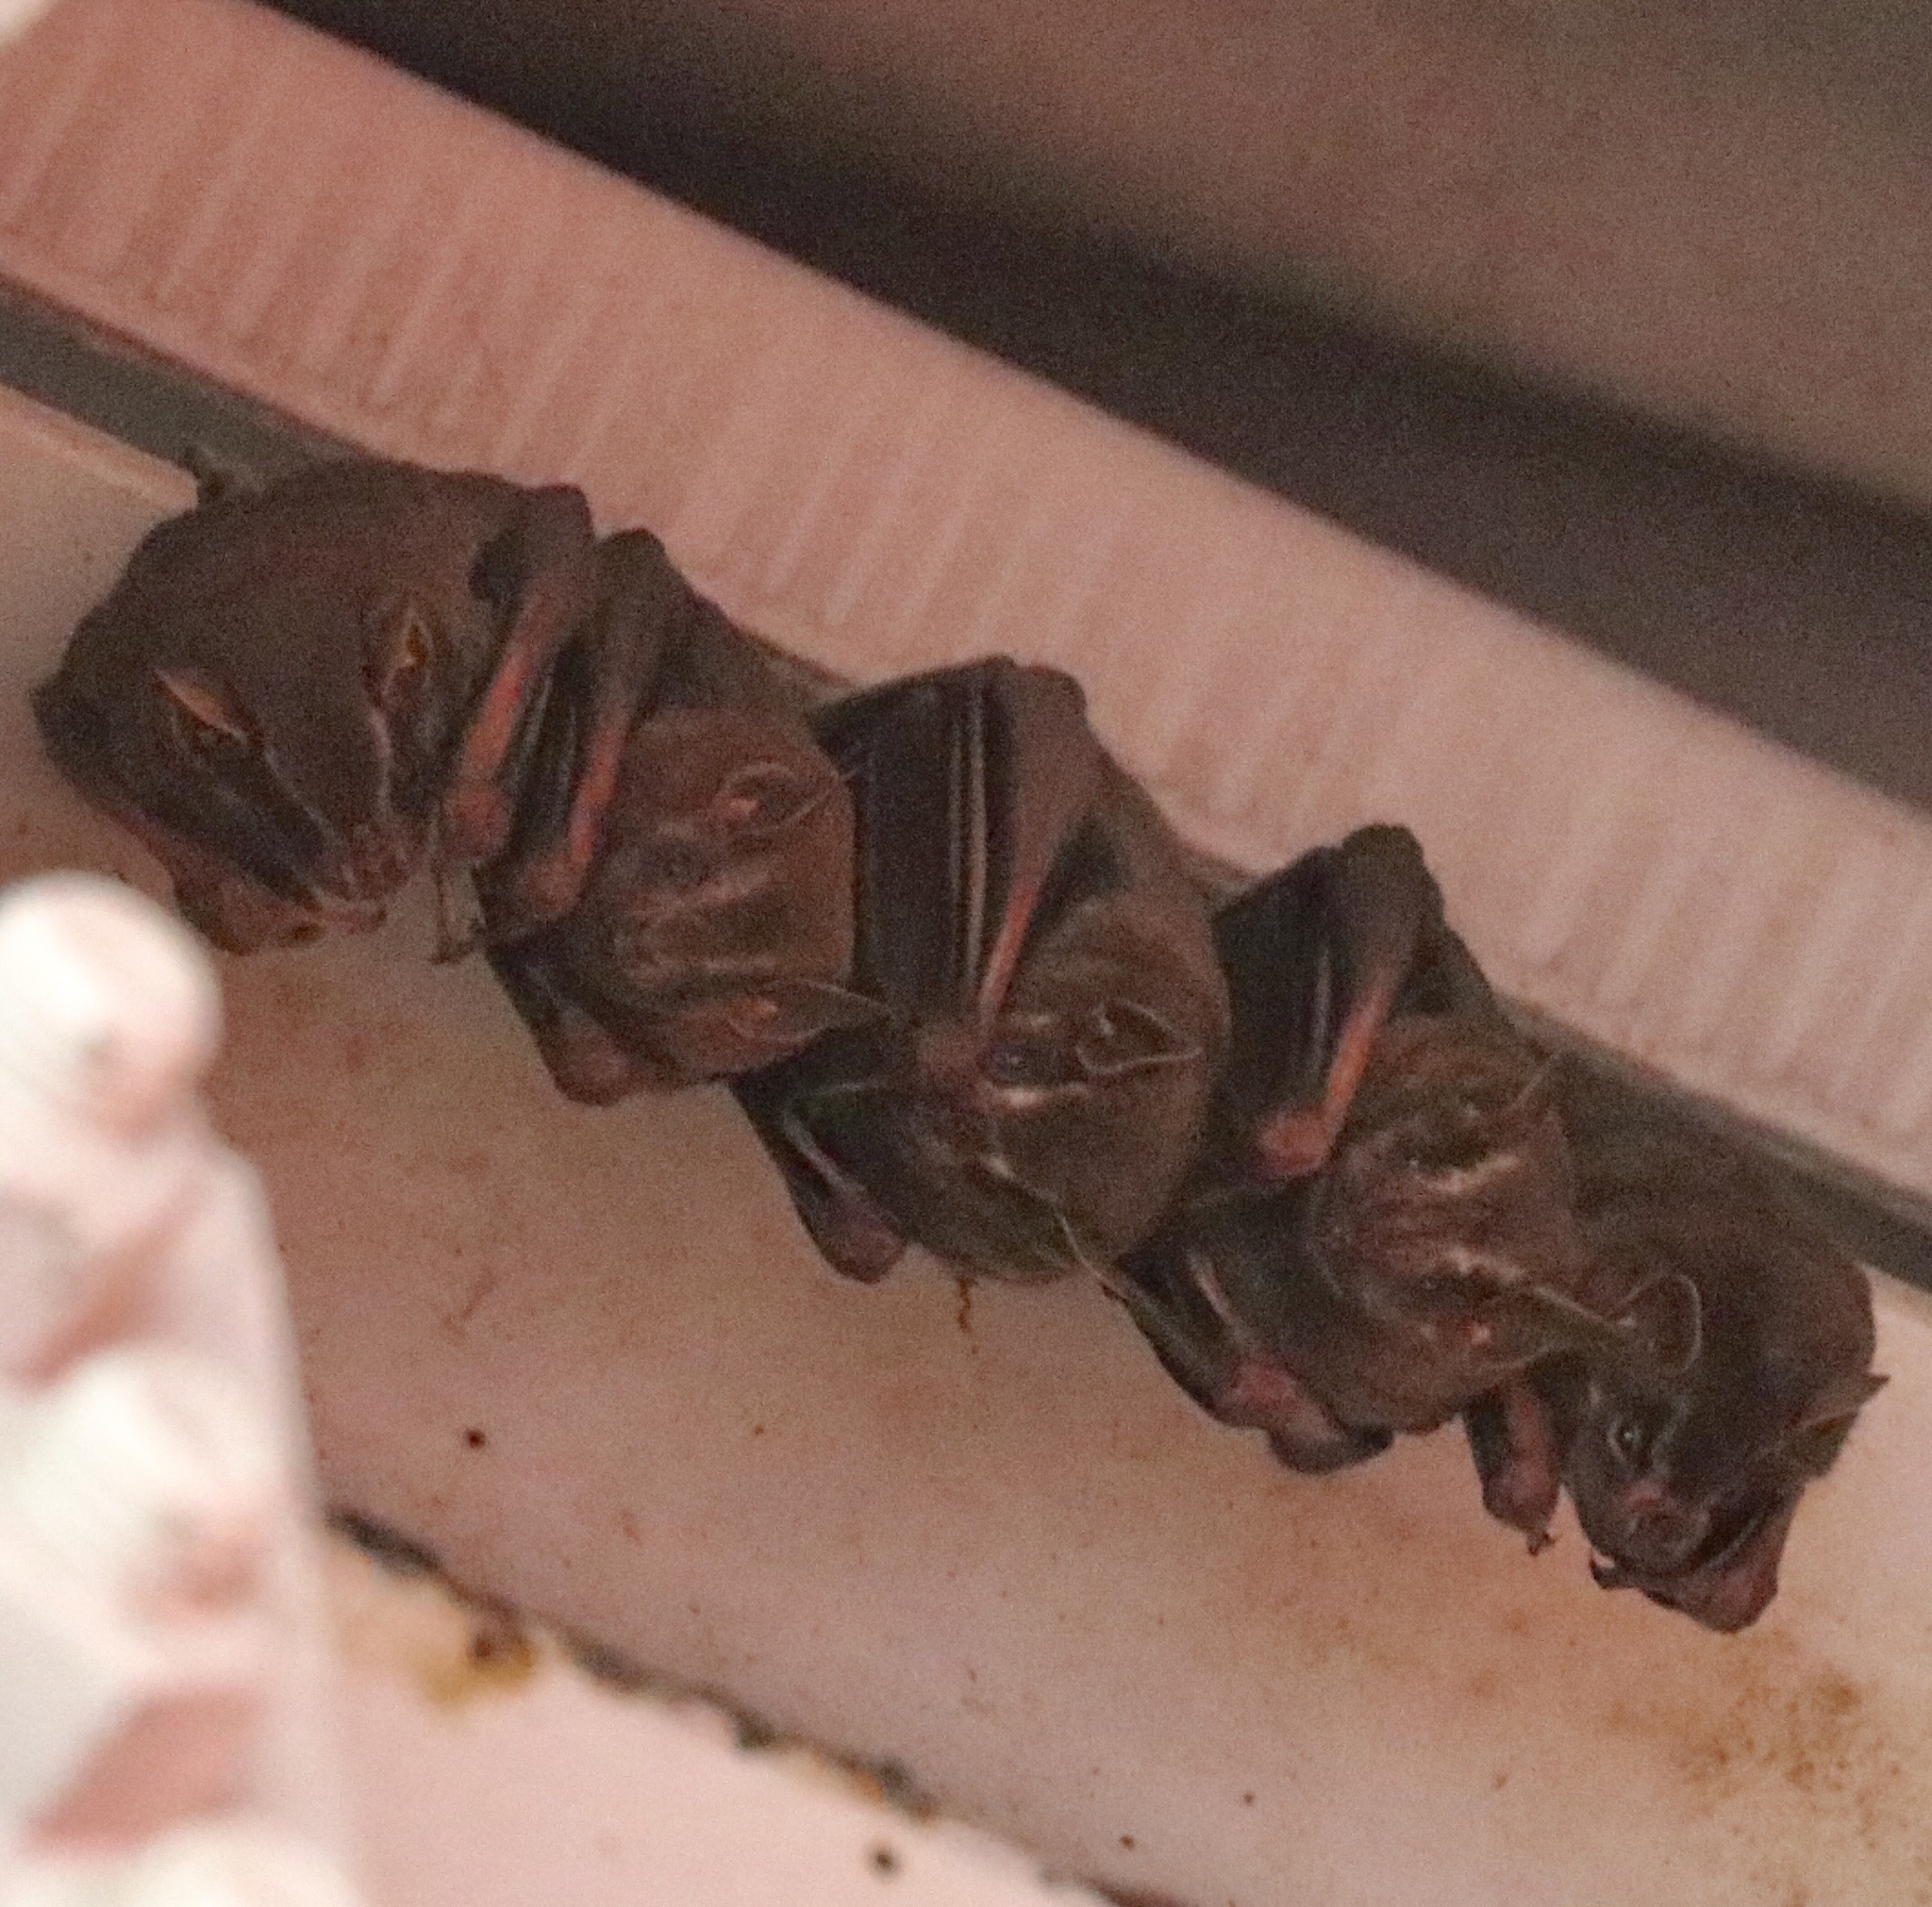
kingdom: Animalia
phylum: Chordata
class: Mammalia
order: Chiroptera
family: Phyllostomidae
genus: Artibeus
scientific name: Artibeus lituratus
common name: Great fruit-eating bat
